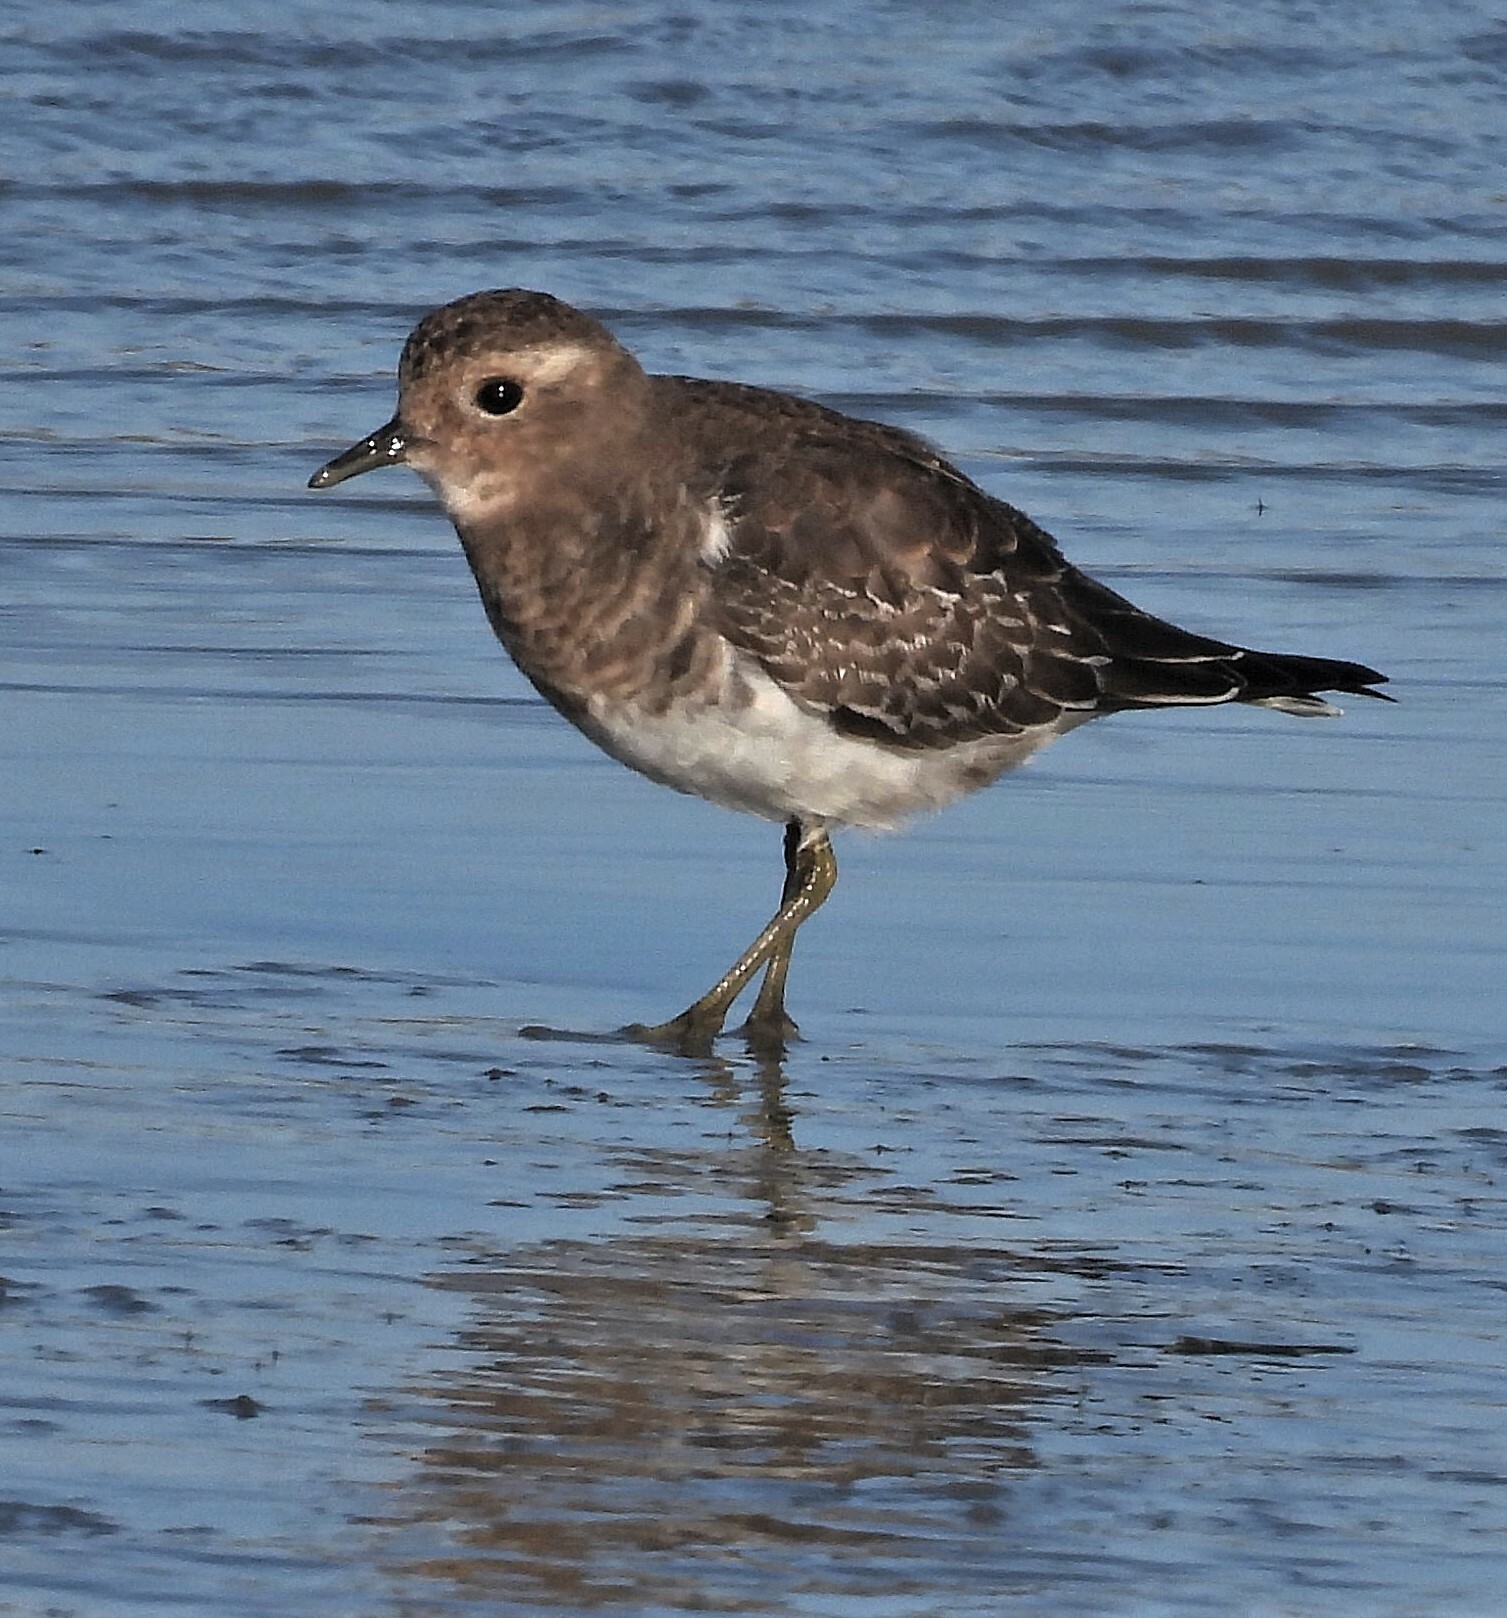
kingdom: Animalia
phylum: Chordata
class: Aves
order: Charadriiformes
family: Charadriidae
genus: Charadrius
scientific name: Charadrius modestus
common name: Rufous-chested plover
